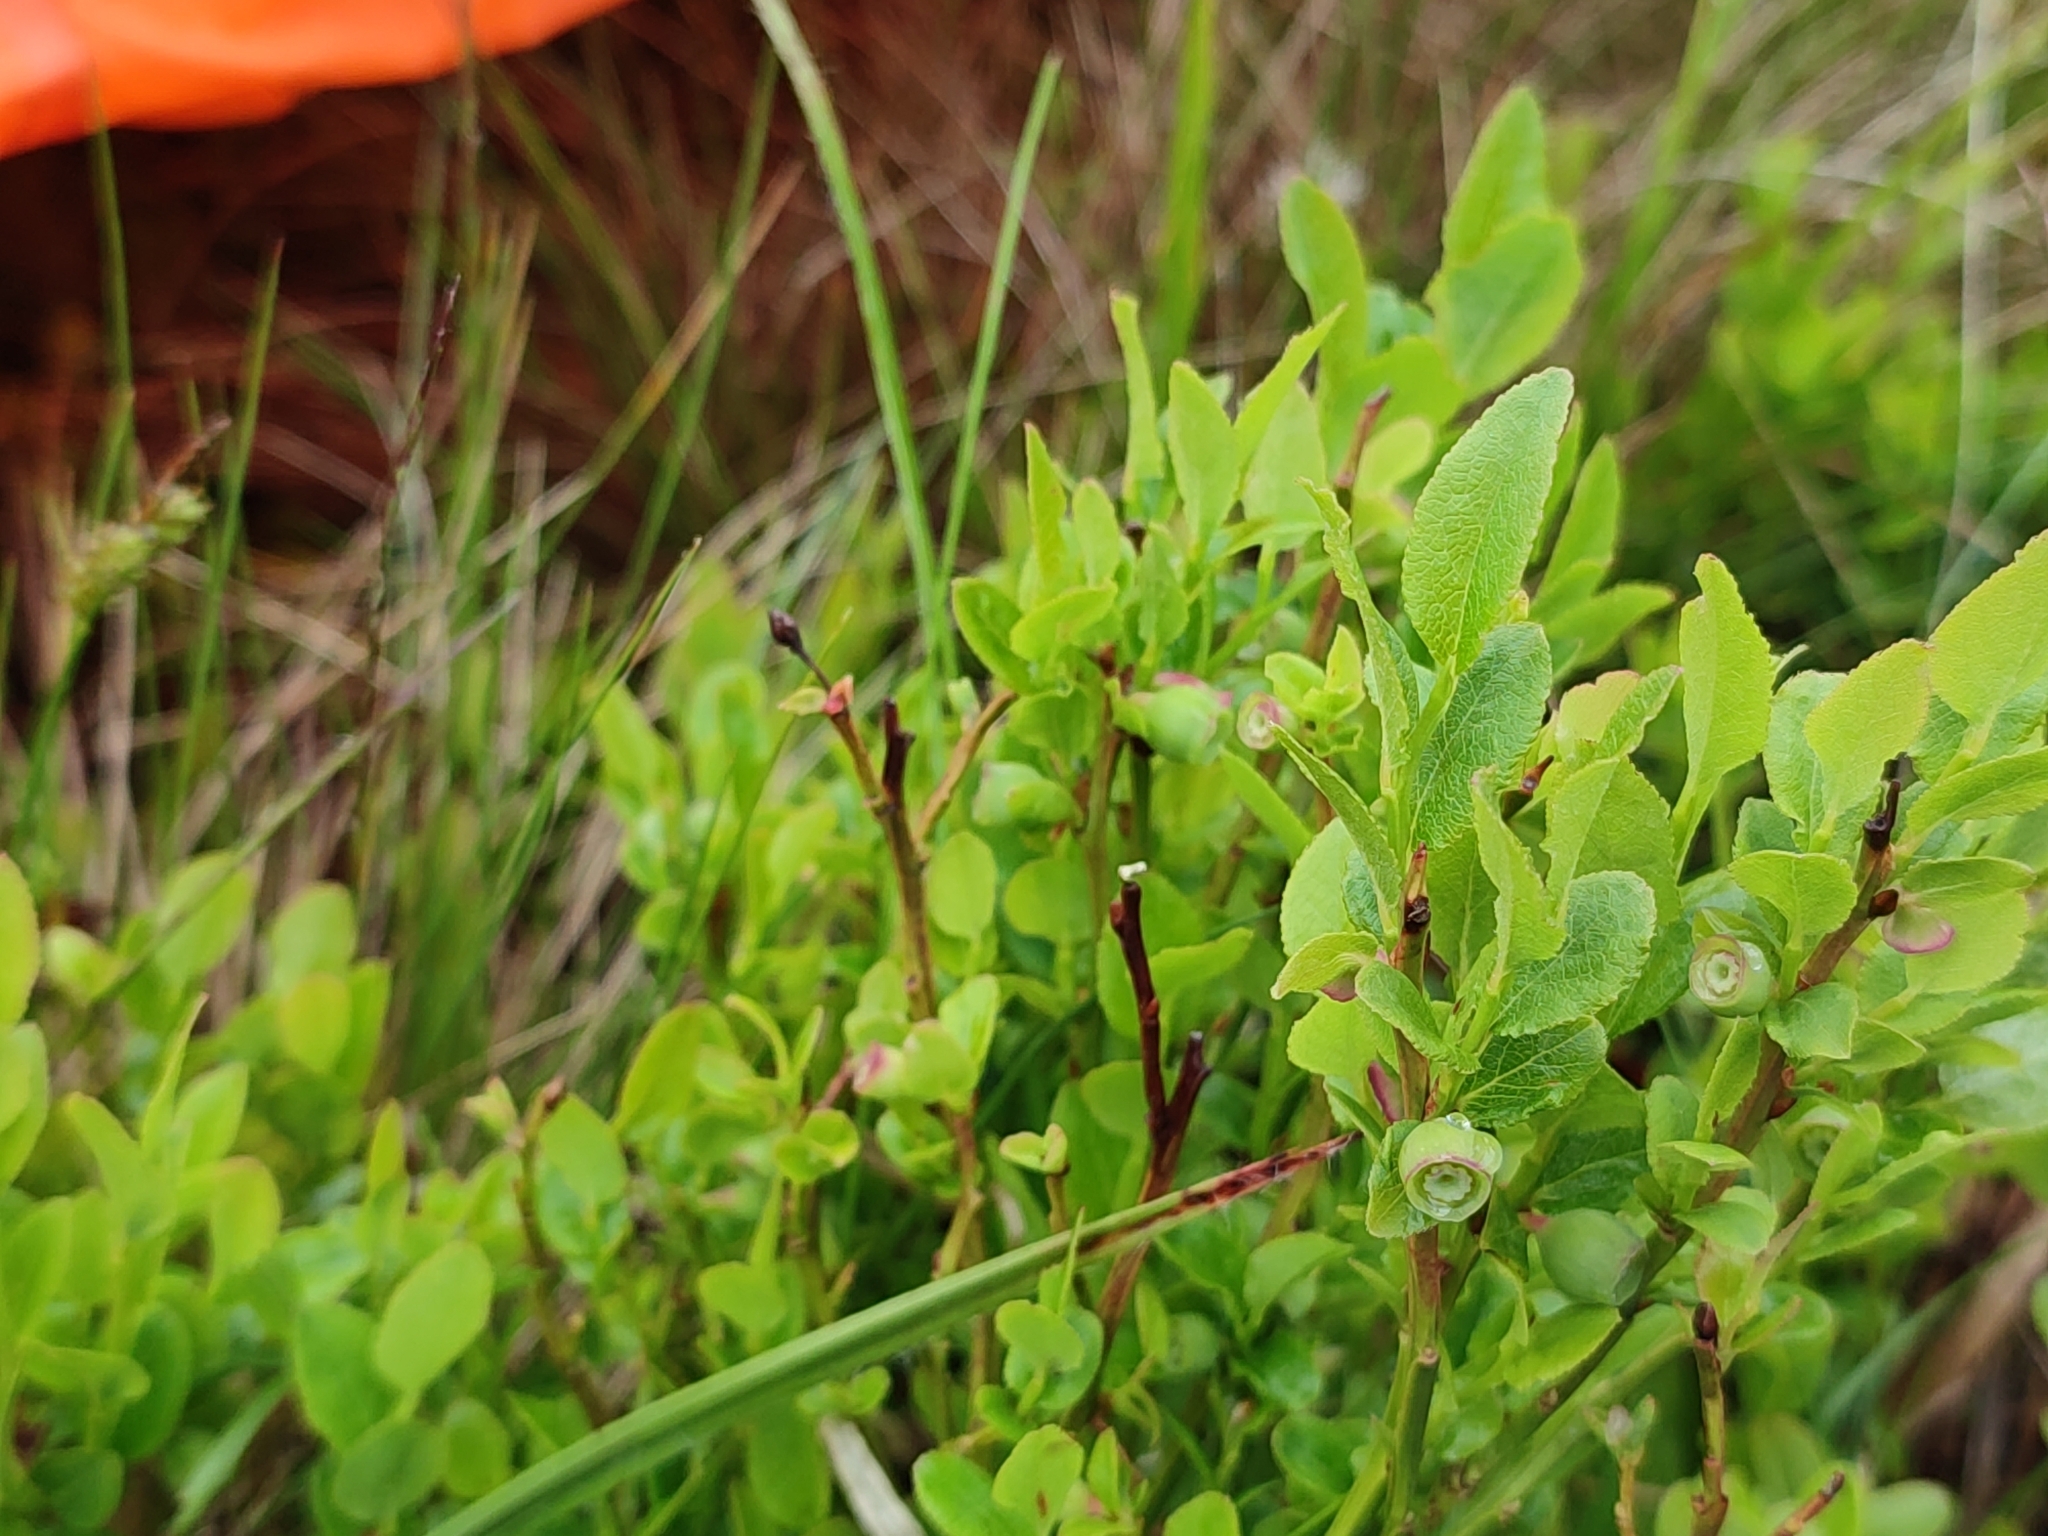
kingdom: Plantae
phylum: Tracheophyta
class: Magnoliopsida
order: Ericales
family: Ericaceae
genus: Vaccinium
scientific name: Vaccinium myrtillus
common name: Bilberry
